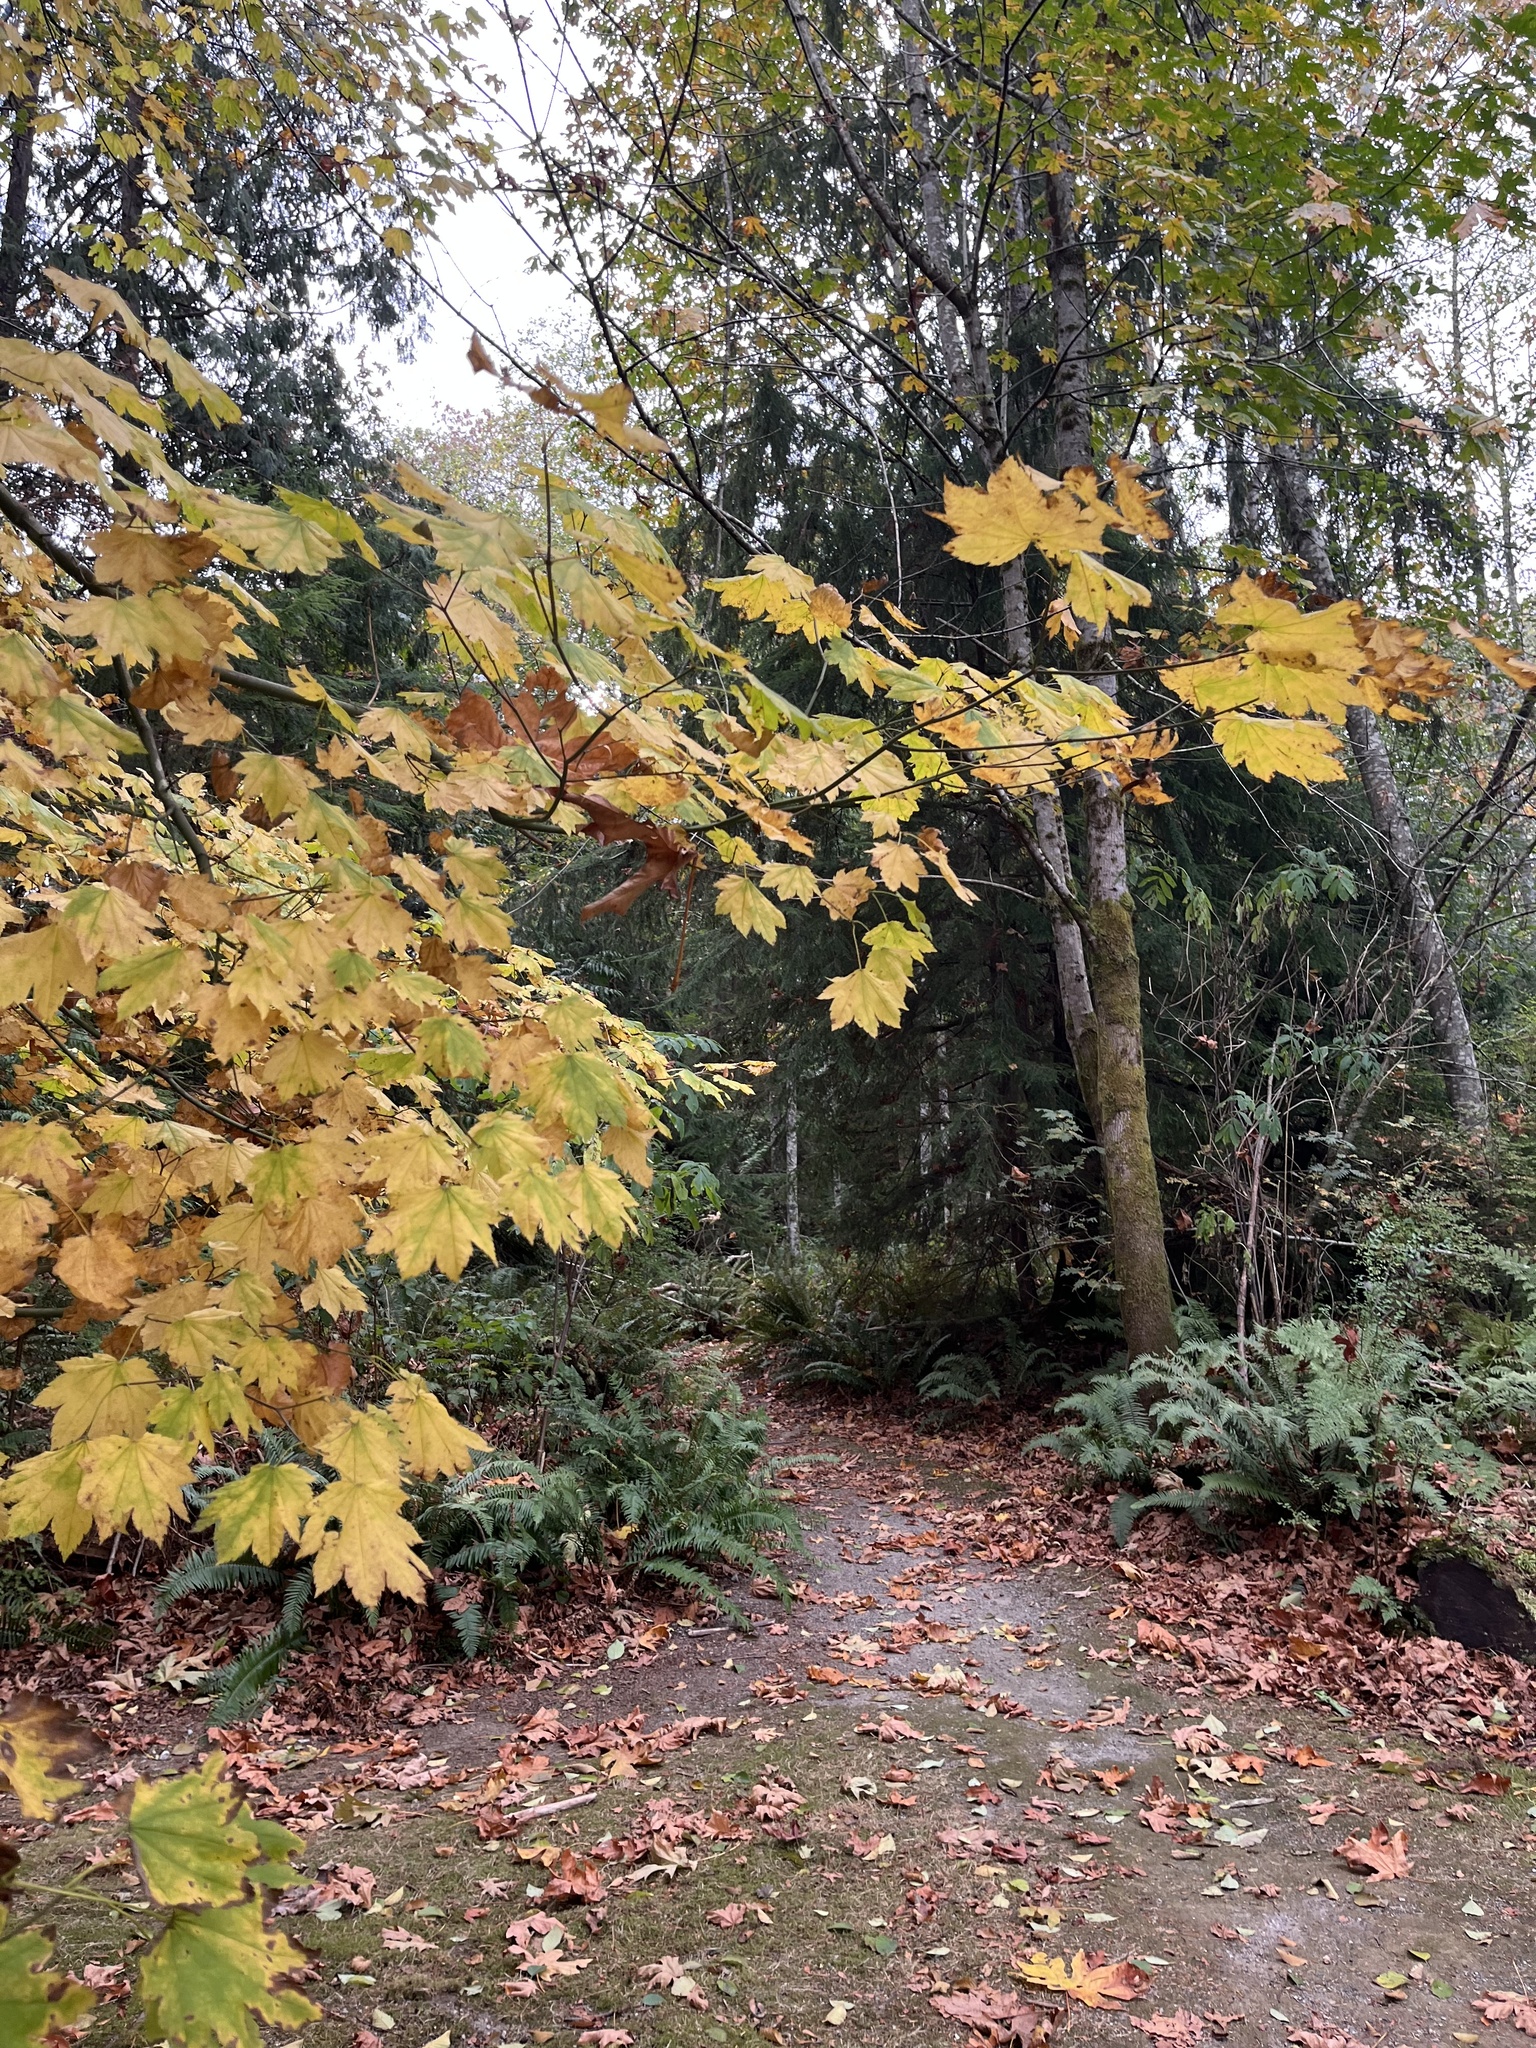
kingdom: Plantae
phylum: Tracheophyta
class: Magnoliopsida
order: Sapindales
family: Sapindaceae
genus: Acer
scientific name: Acer circinatum
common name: Vine maple
